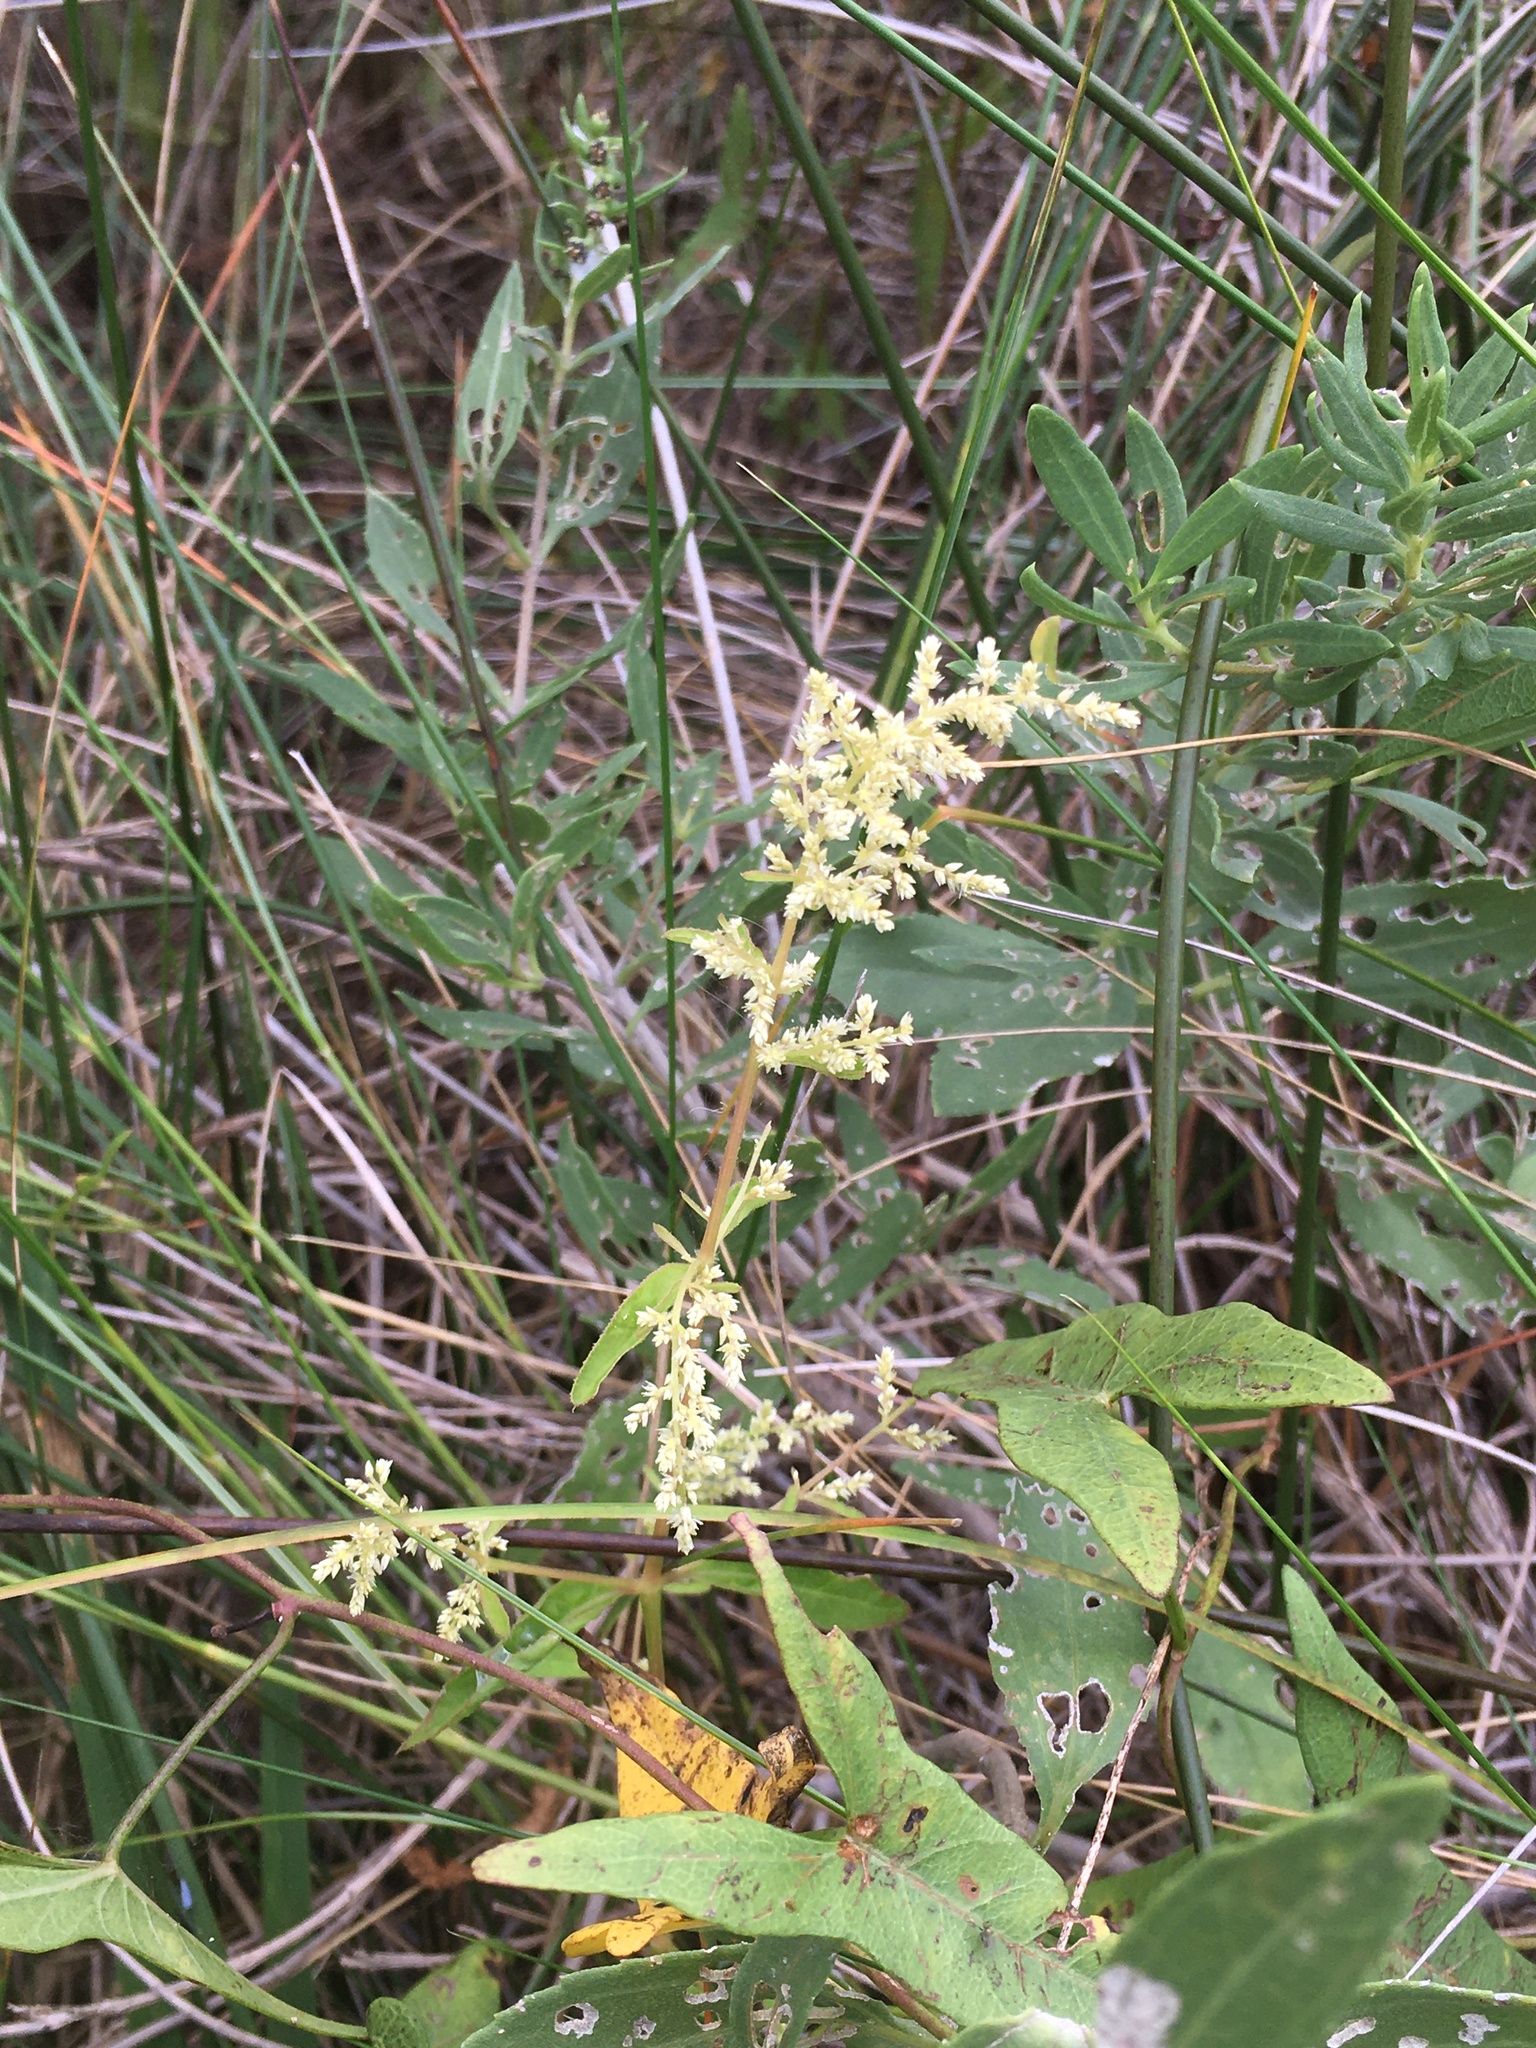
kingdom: Plantae
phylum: Tracheophyta
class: Magnoliopsida
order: Caryophyllales
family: Amaranthaceae
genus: Iresine
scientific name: Iresine rhizomatosa
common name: Juda's-bush
